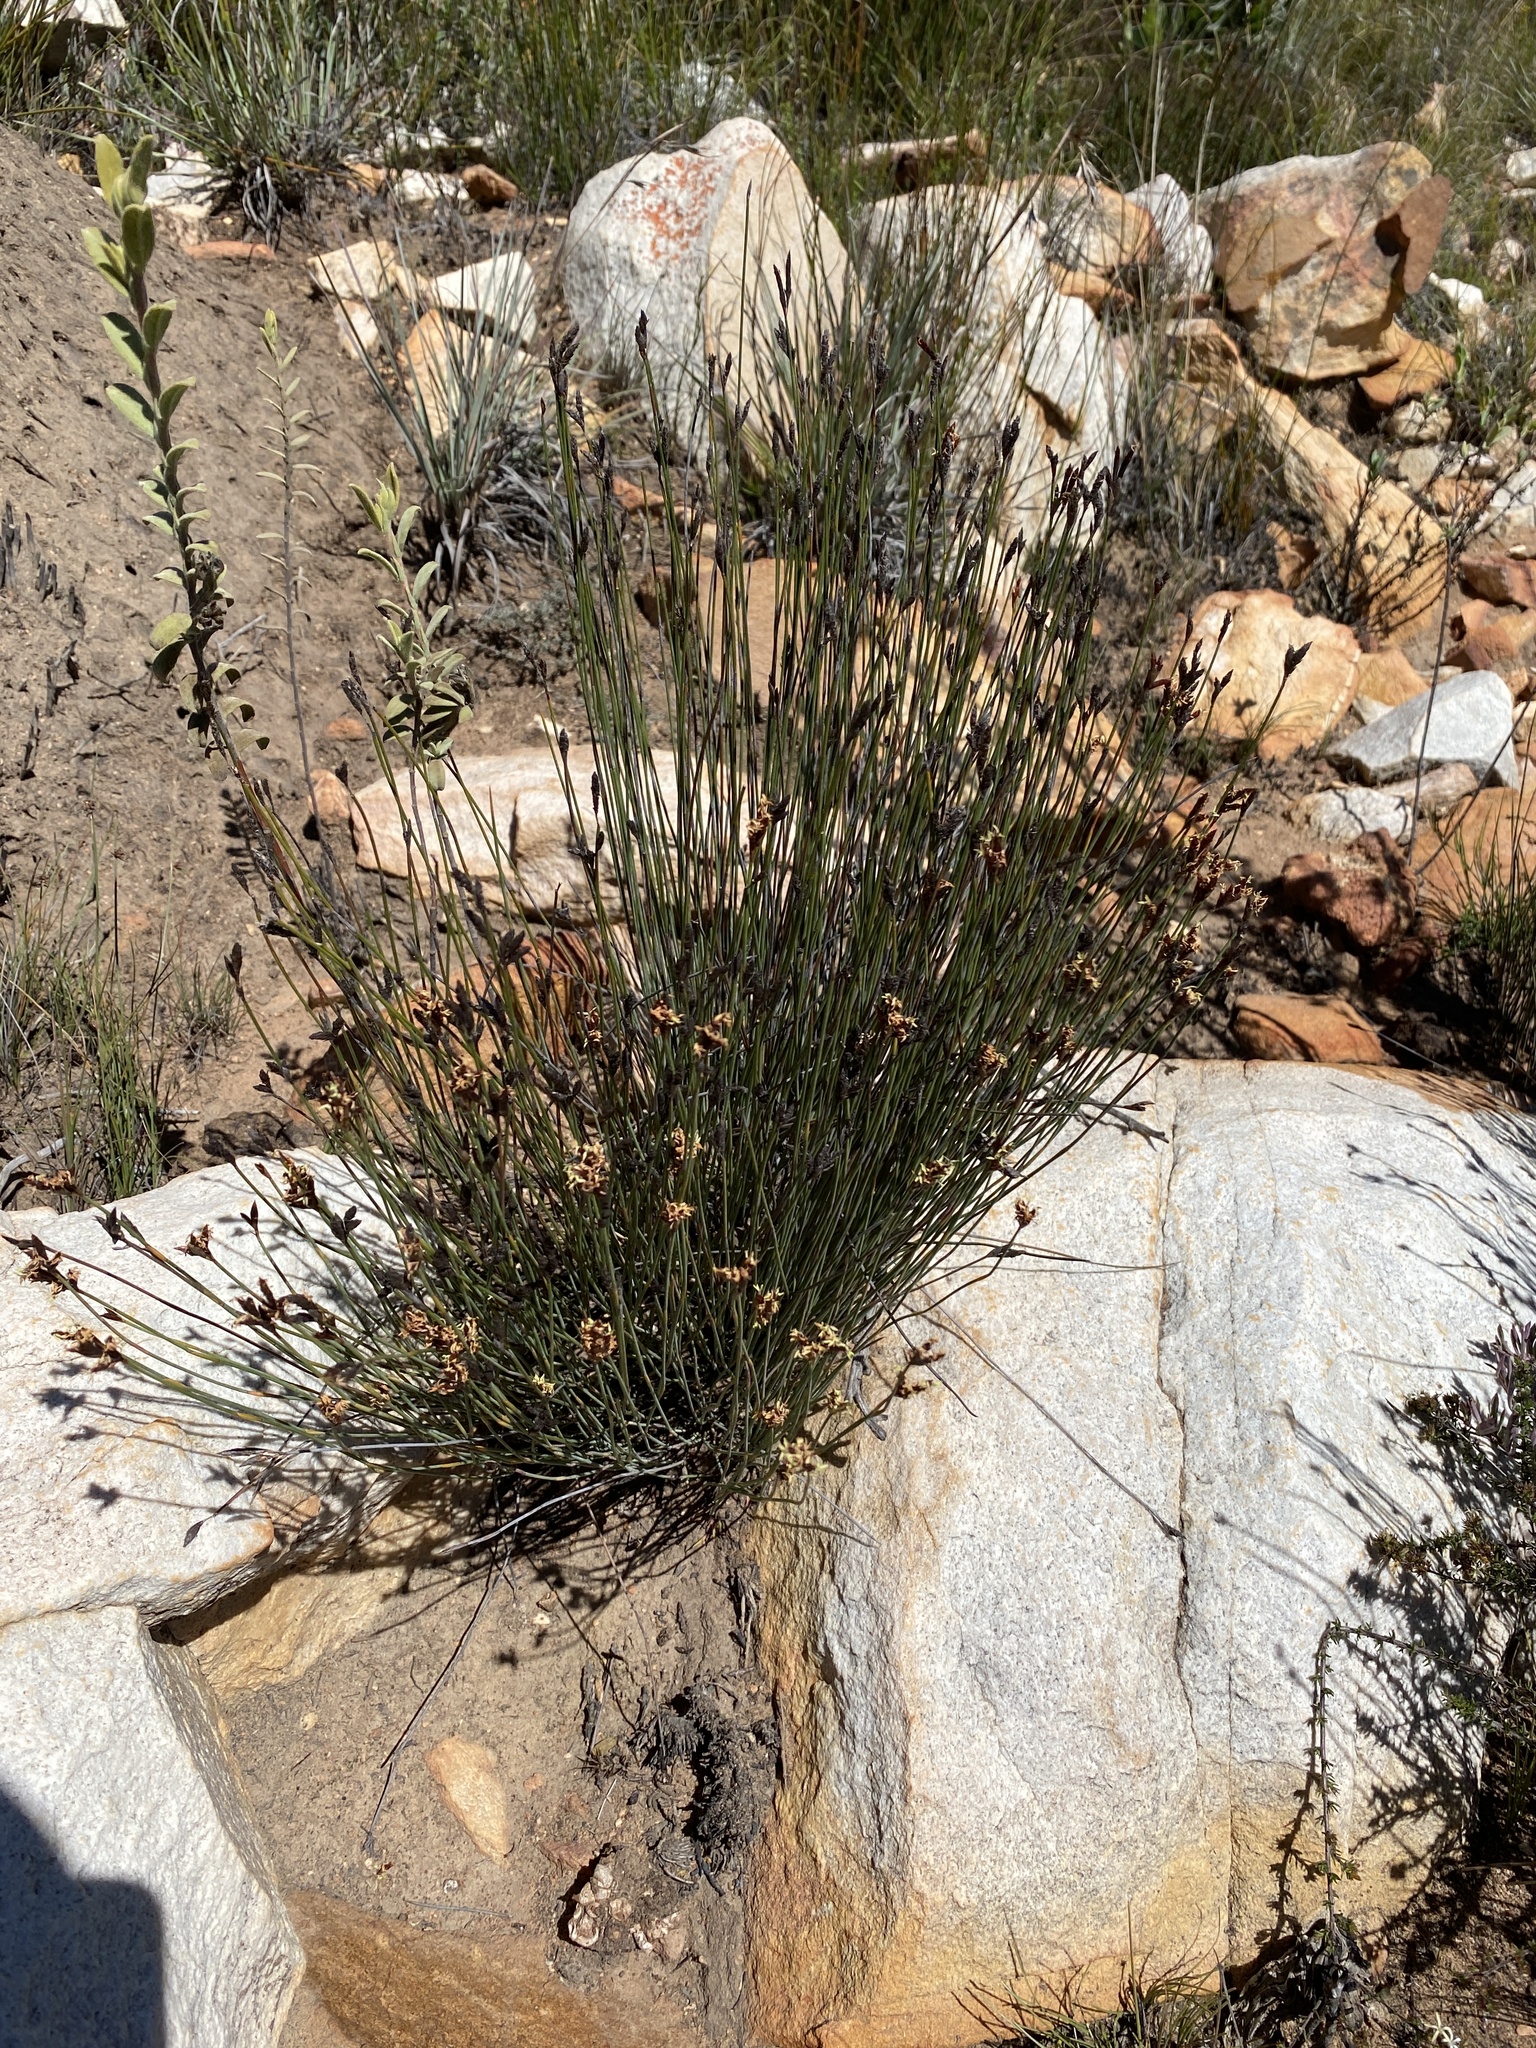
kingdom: Plantae
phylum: Tracheophyta
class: Liliopsida
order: Poales
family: Restionaceae
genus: Hypodiscus
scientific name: Hypodiscus striatus
